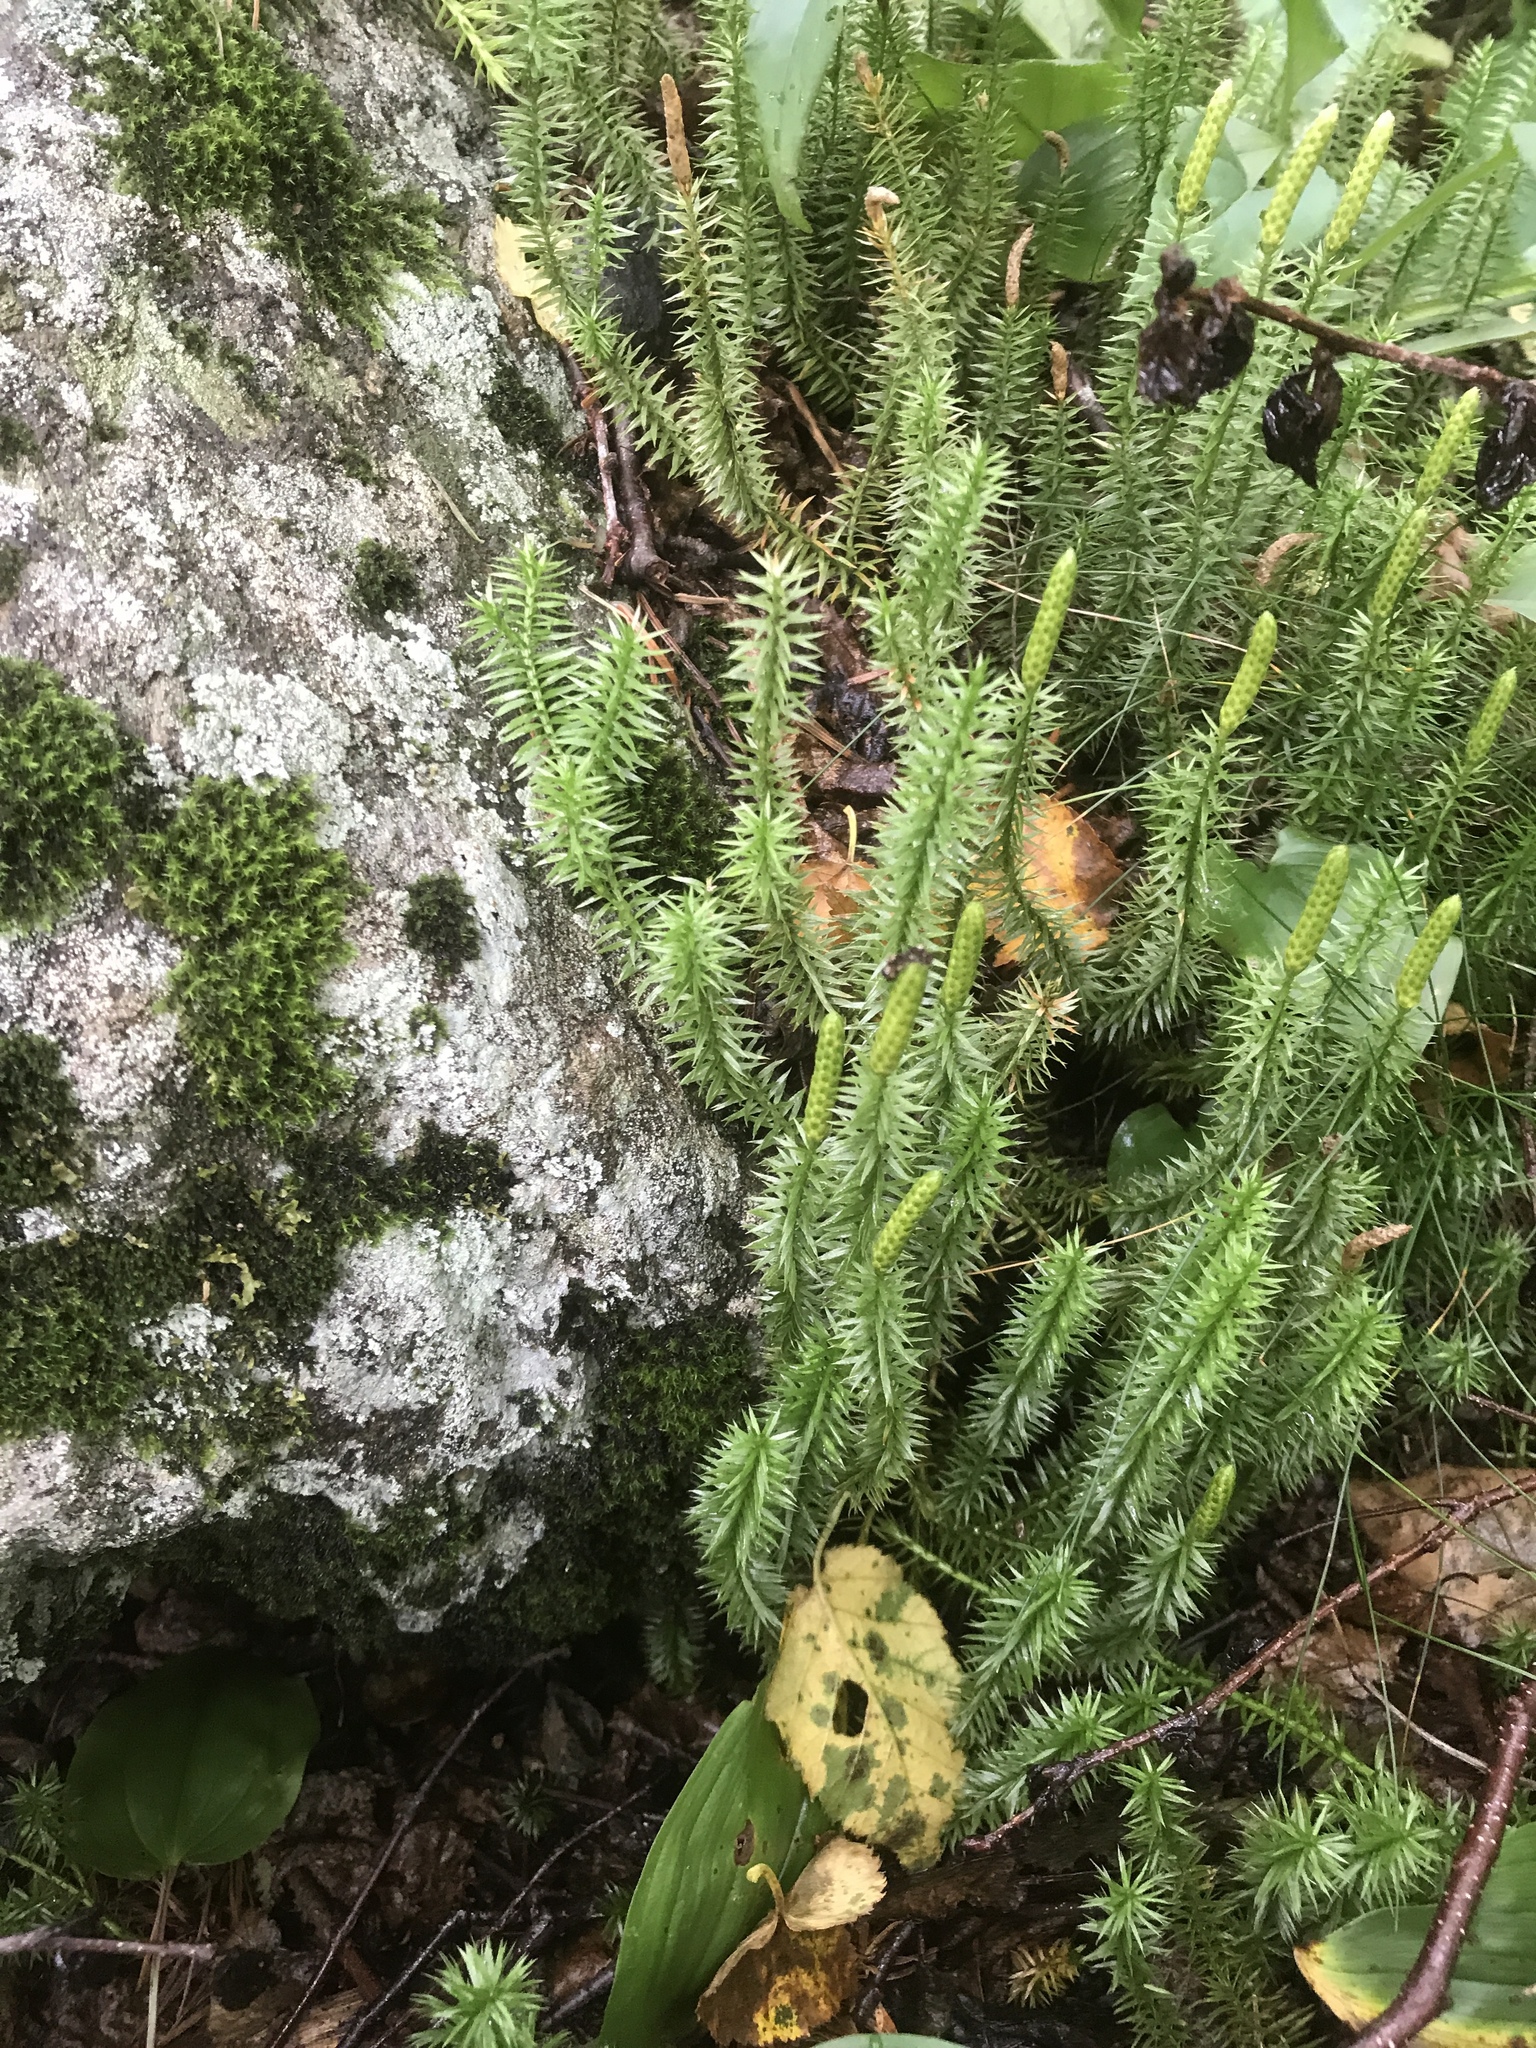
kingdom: Plantae
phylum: Tracheophyta
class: Lycopodiopsida
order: Lycopodiales
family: Lycopodiaceae
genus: Spinulum
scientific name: Spinulum annotinum
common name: Interrupted club-moss
